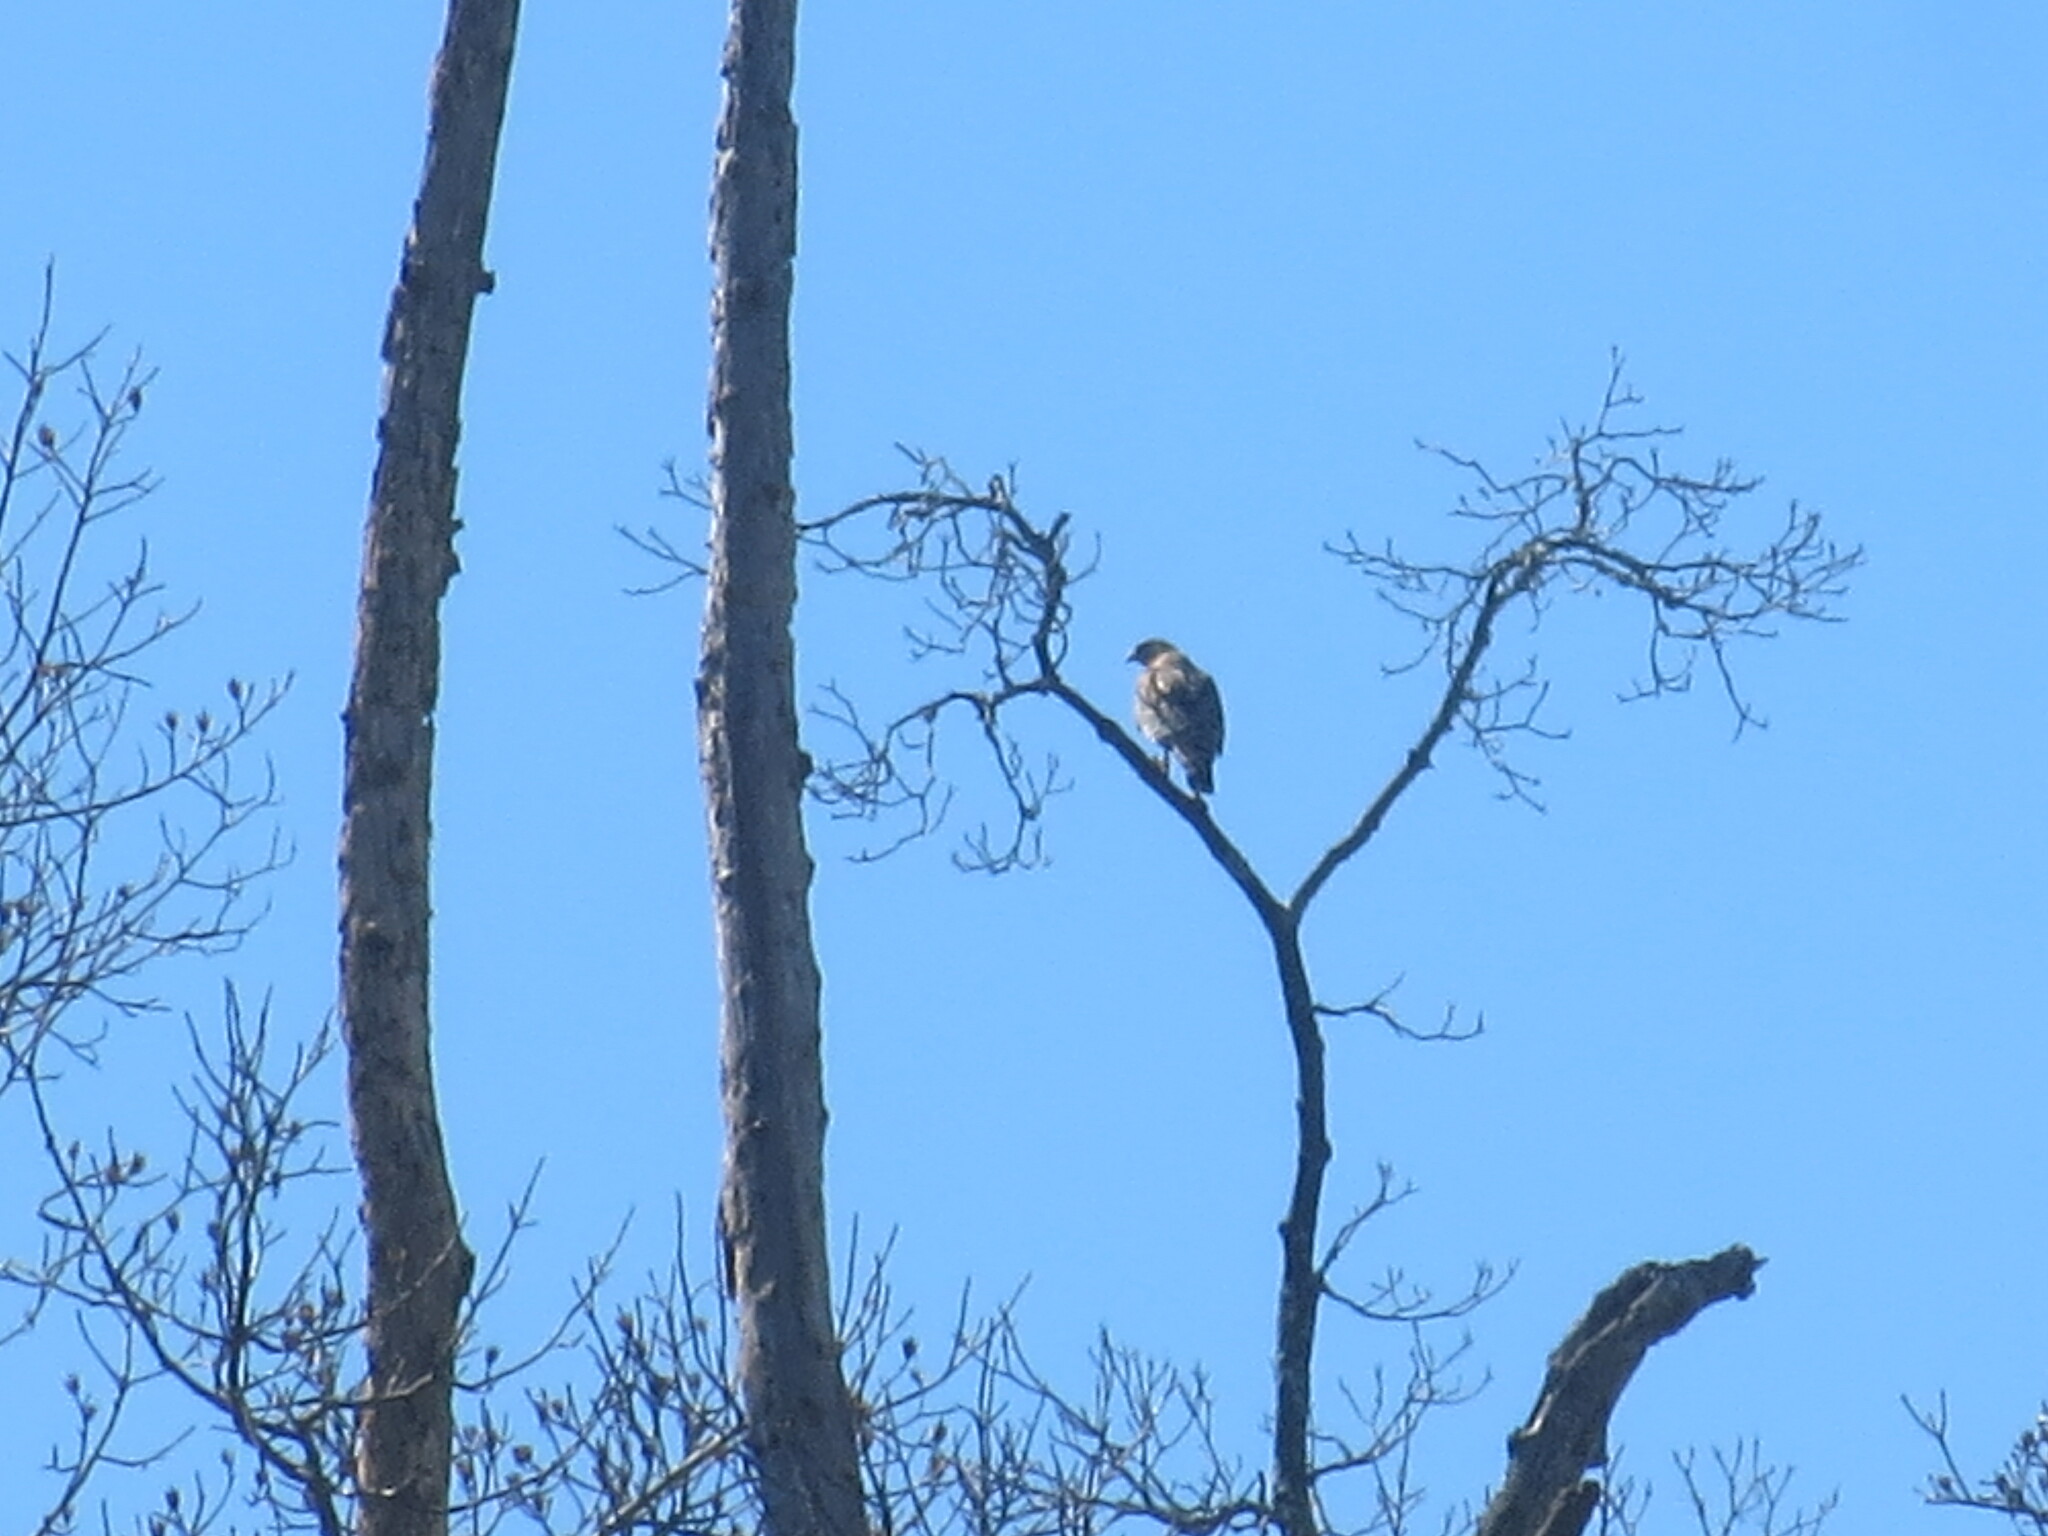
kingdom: Animalia
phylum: Chordata
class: Aves
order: Accipitriformes
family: Accipitridae
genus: Buteo
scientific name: Buteo lineatus
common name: Red-shouldered hawk
